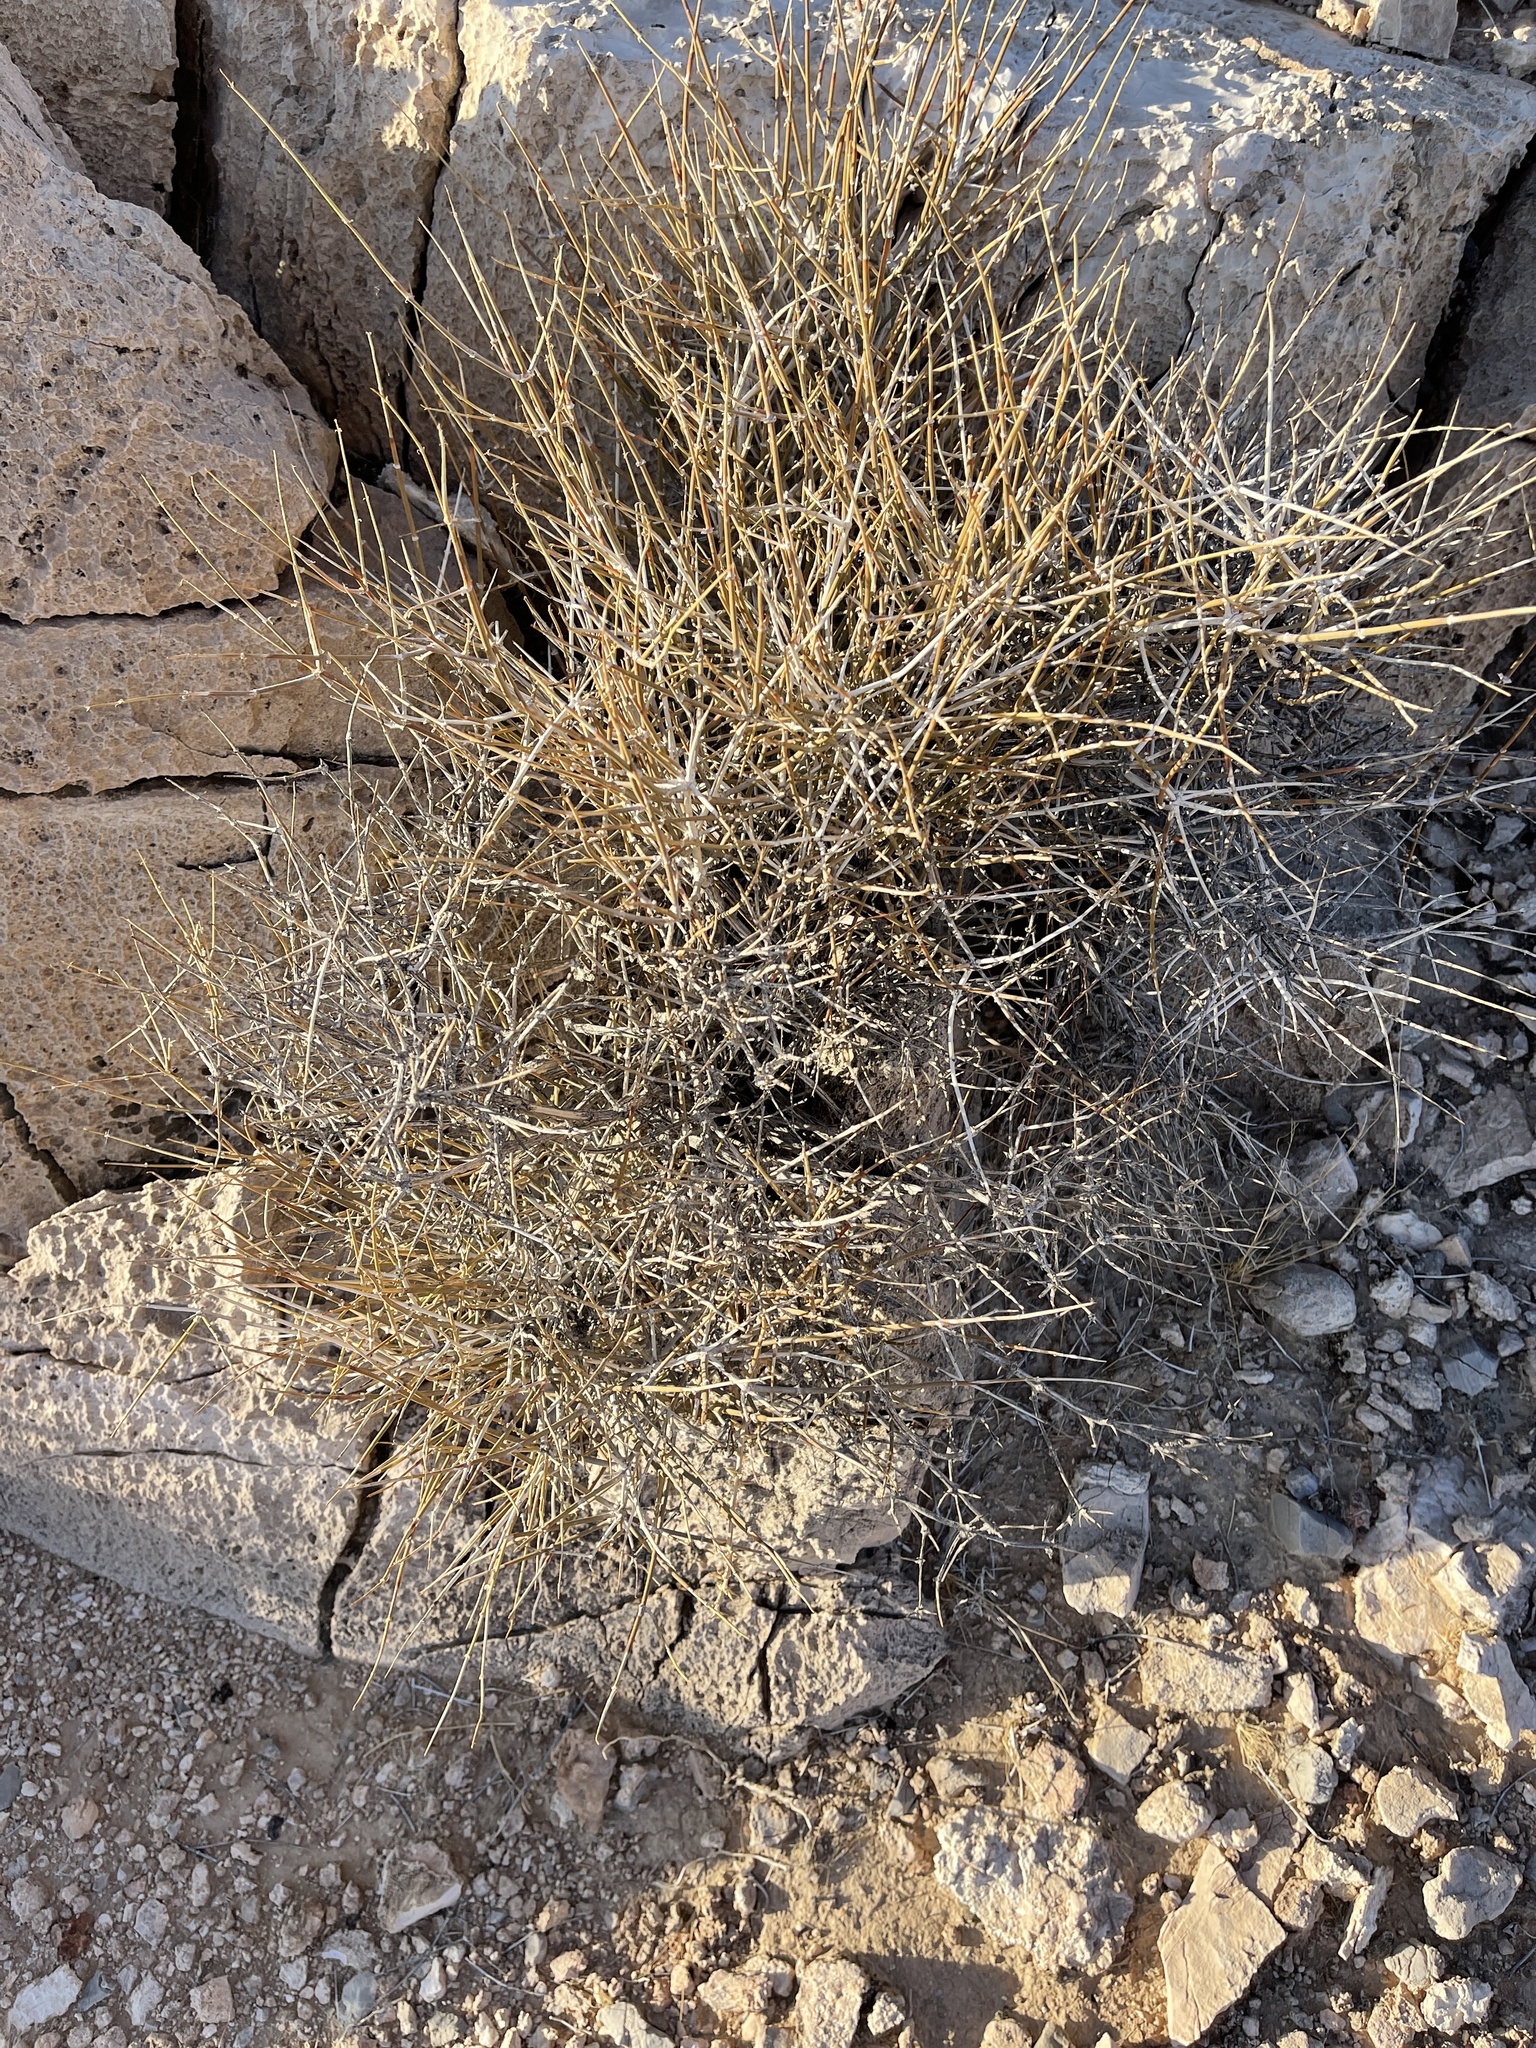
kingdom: Plantae
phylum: Tracheophyta
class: Gnetopsida
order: Ephedrales
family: Ephedraceae
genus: Ephedra
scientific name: Ephedra nevadensis
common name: Gray ephedra
